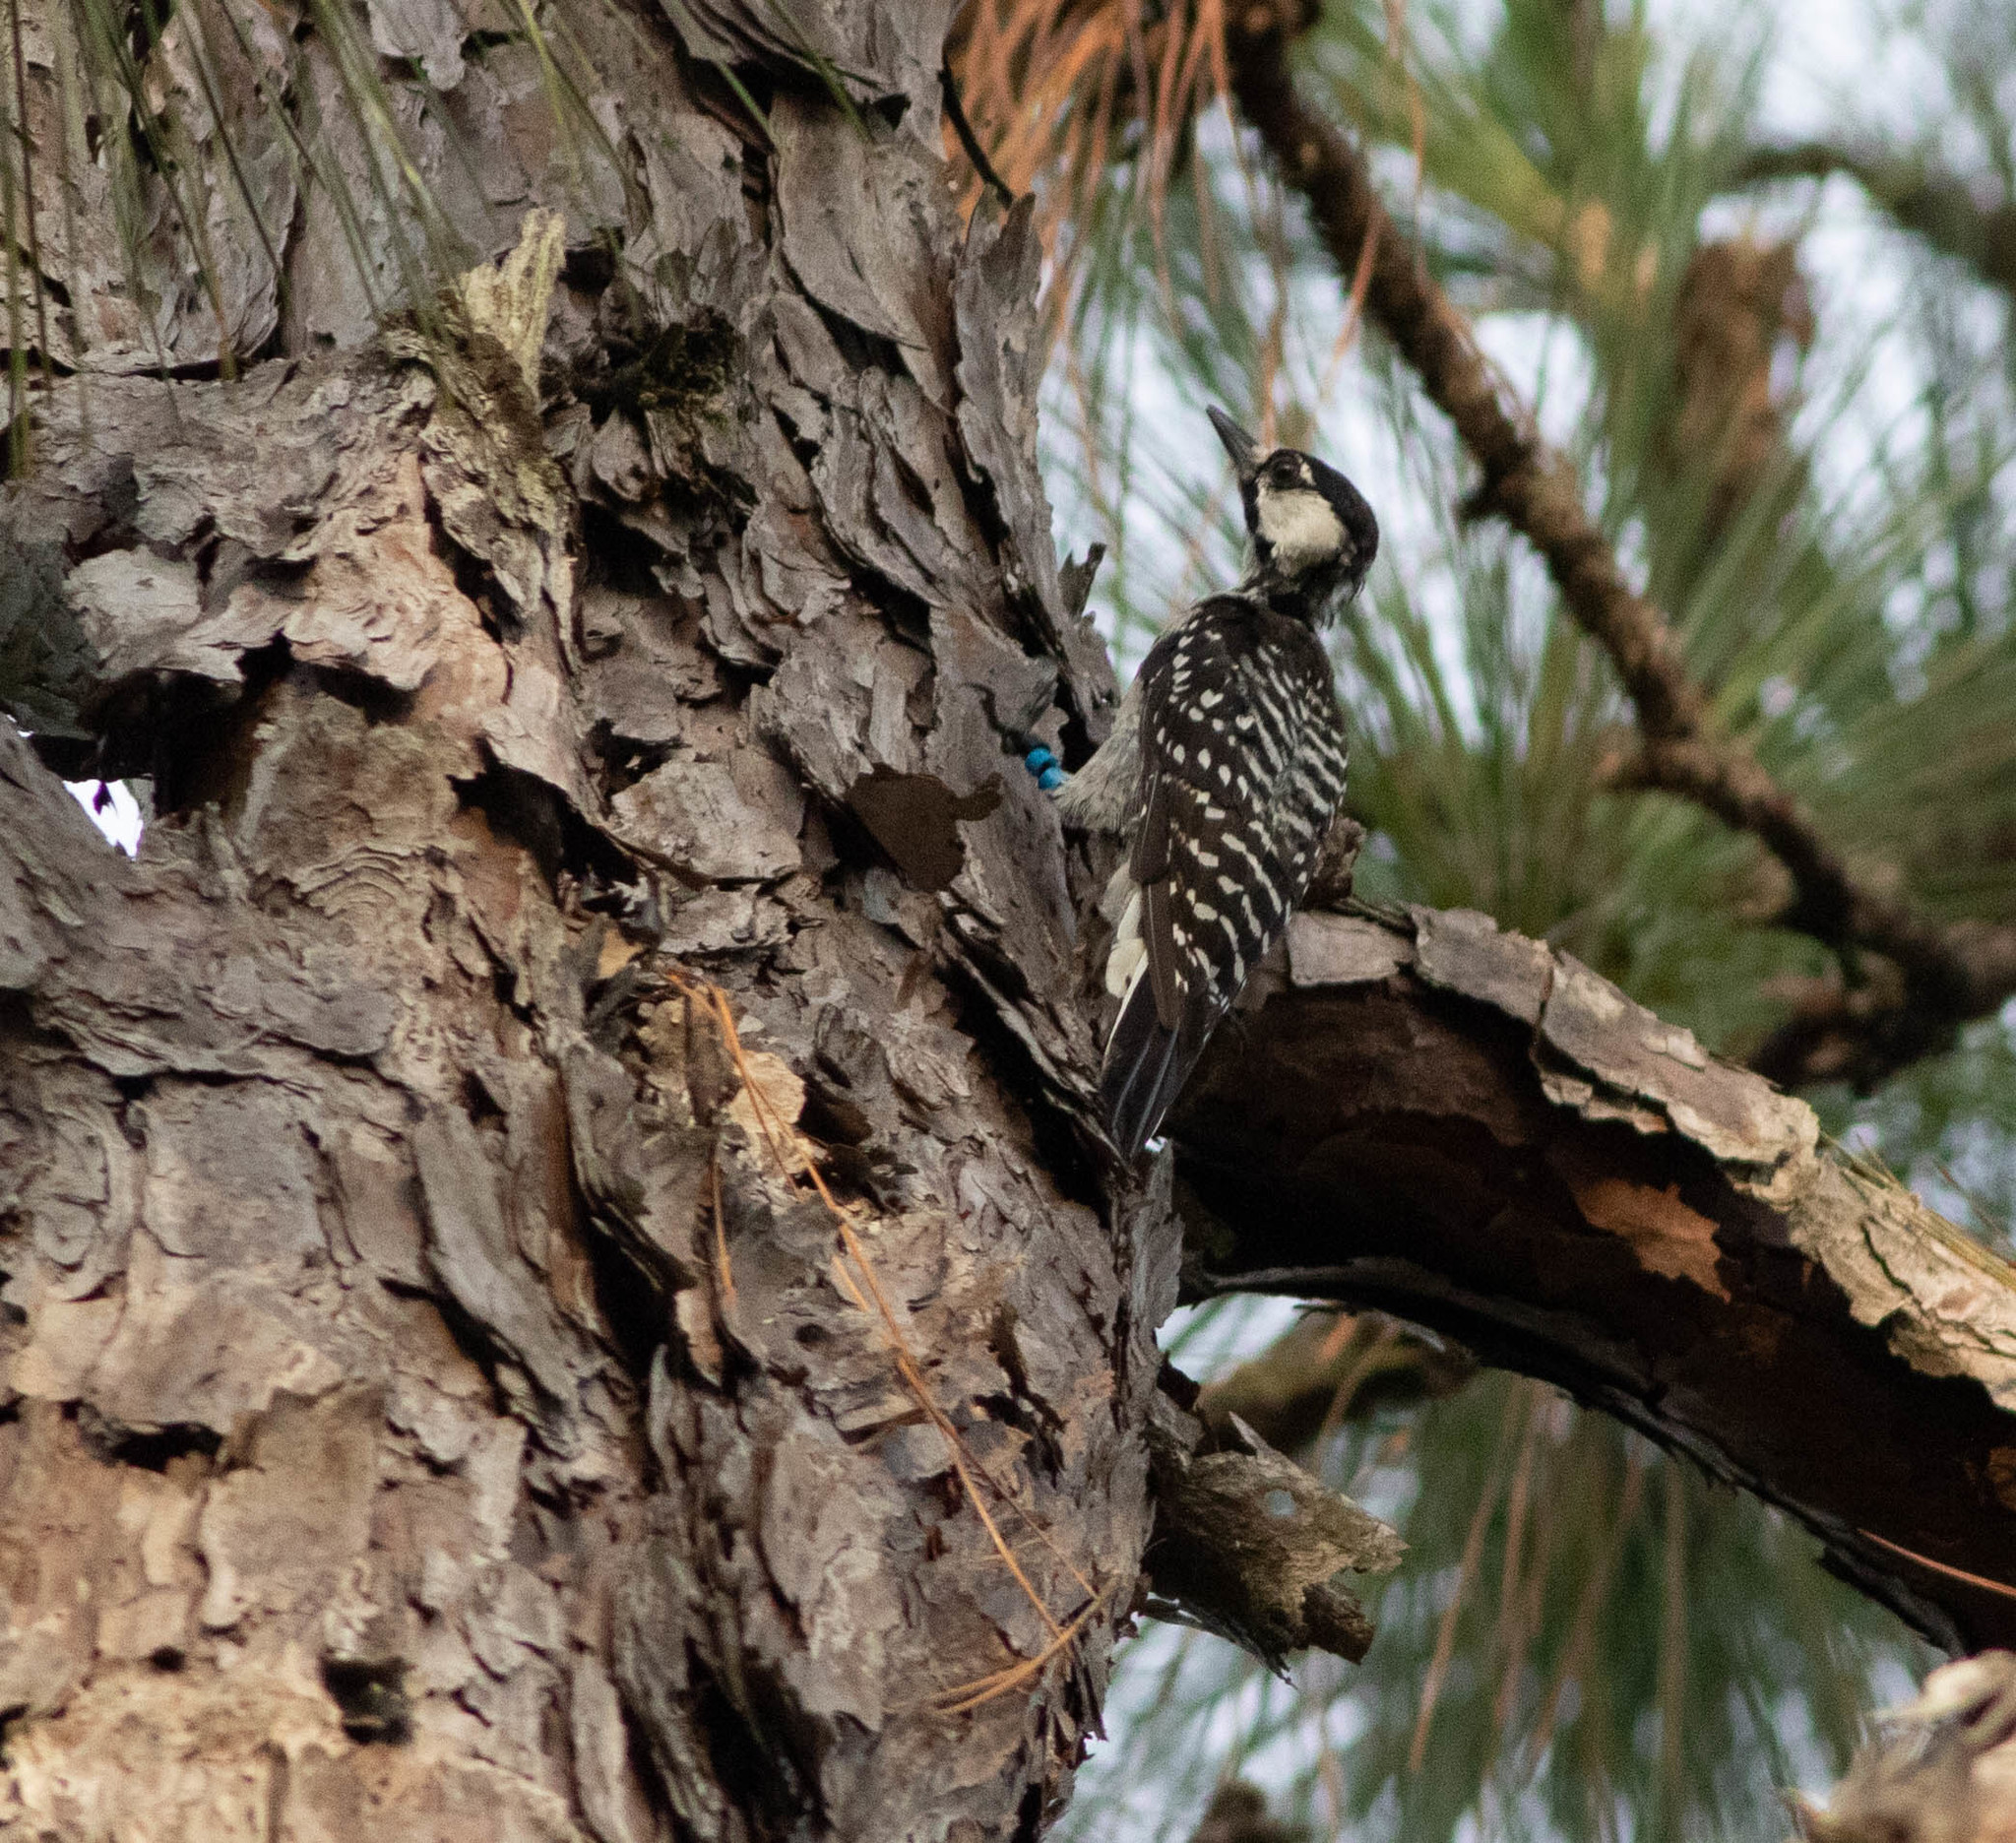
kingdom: Animalia
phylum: Chordata
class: Aves
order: Piciformes
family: Picidae
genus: Leuconotopicus
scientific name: Leuconotopicus borealis
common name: Red-cockaded woodpecker
